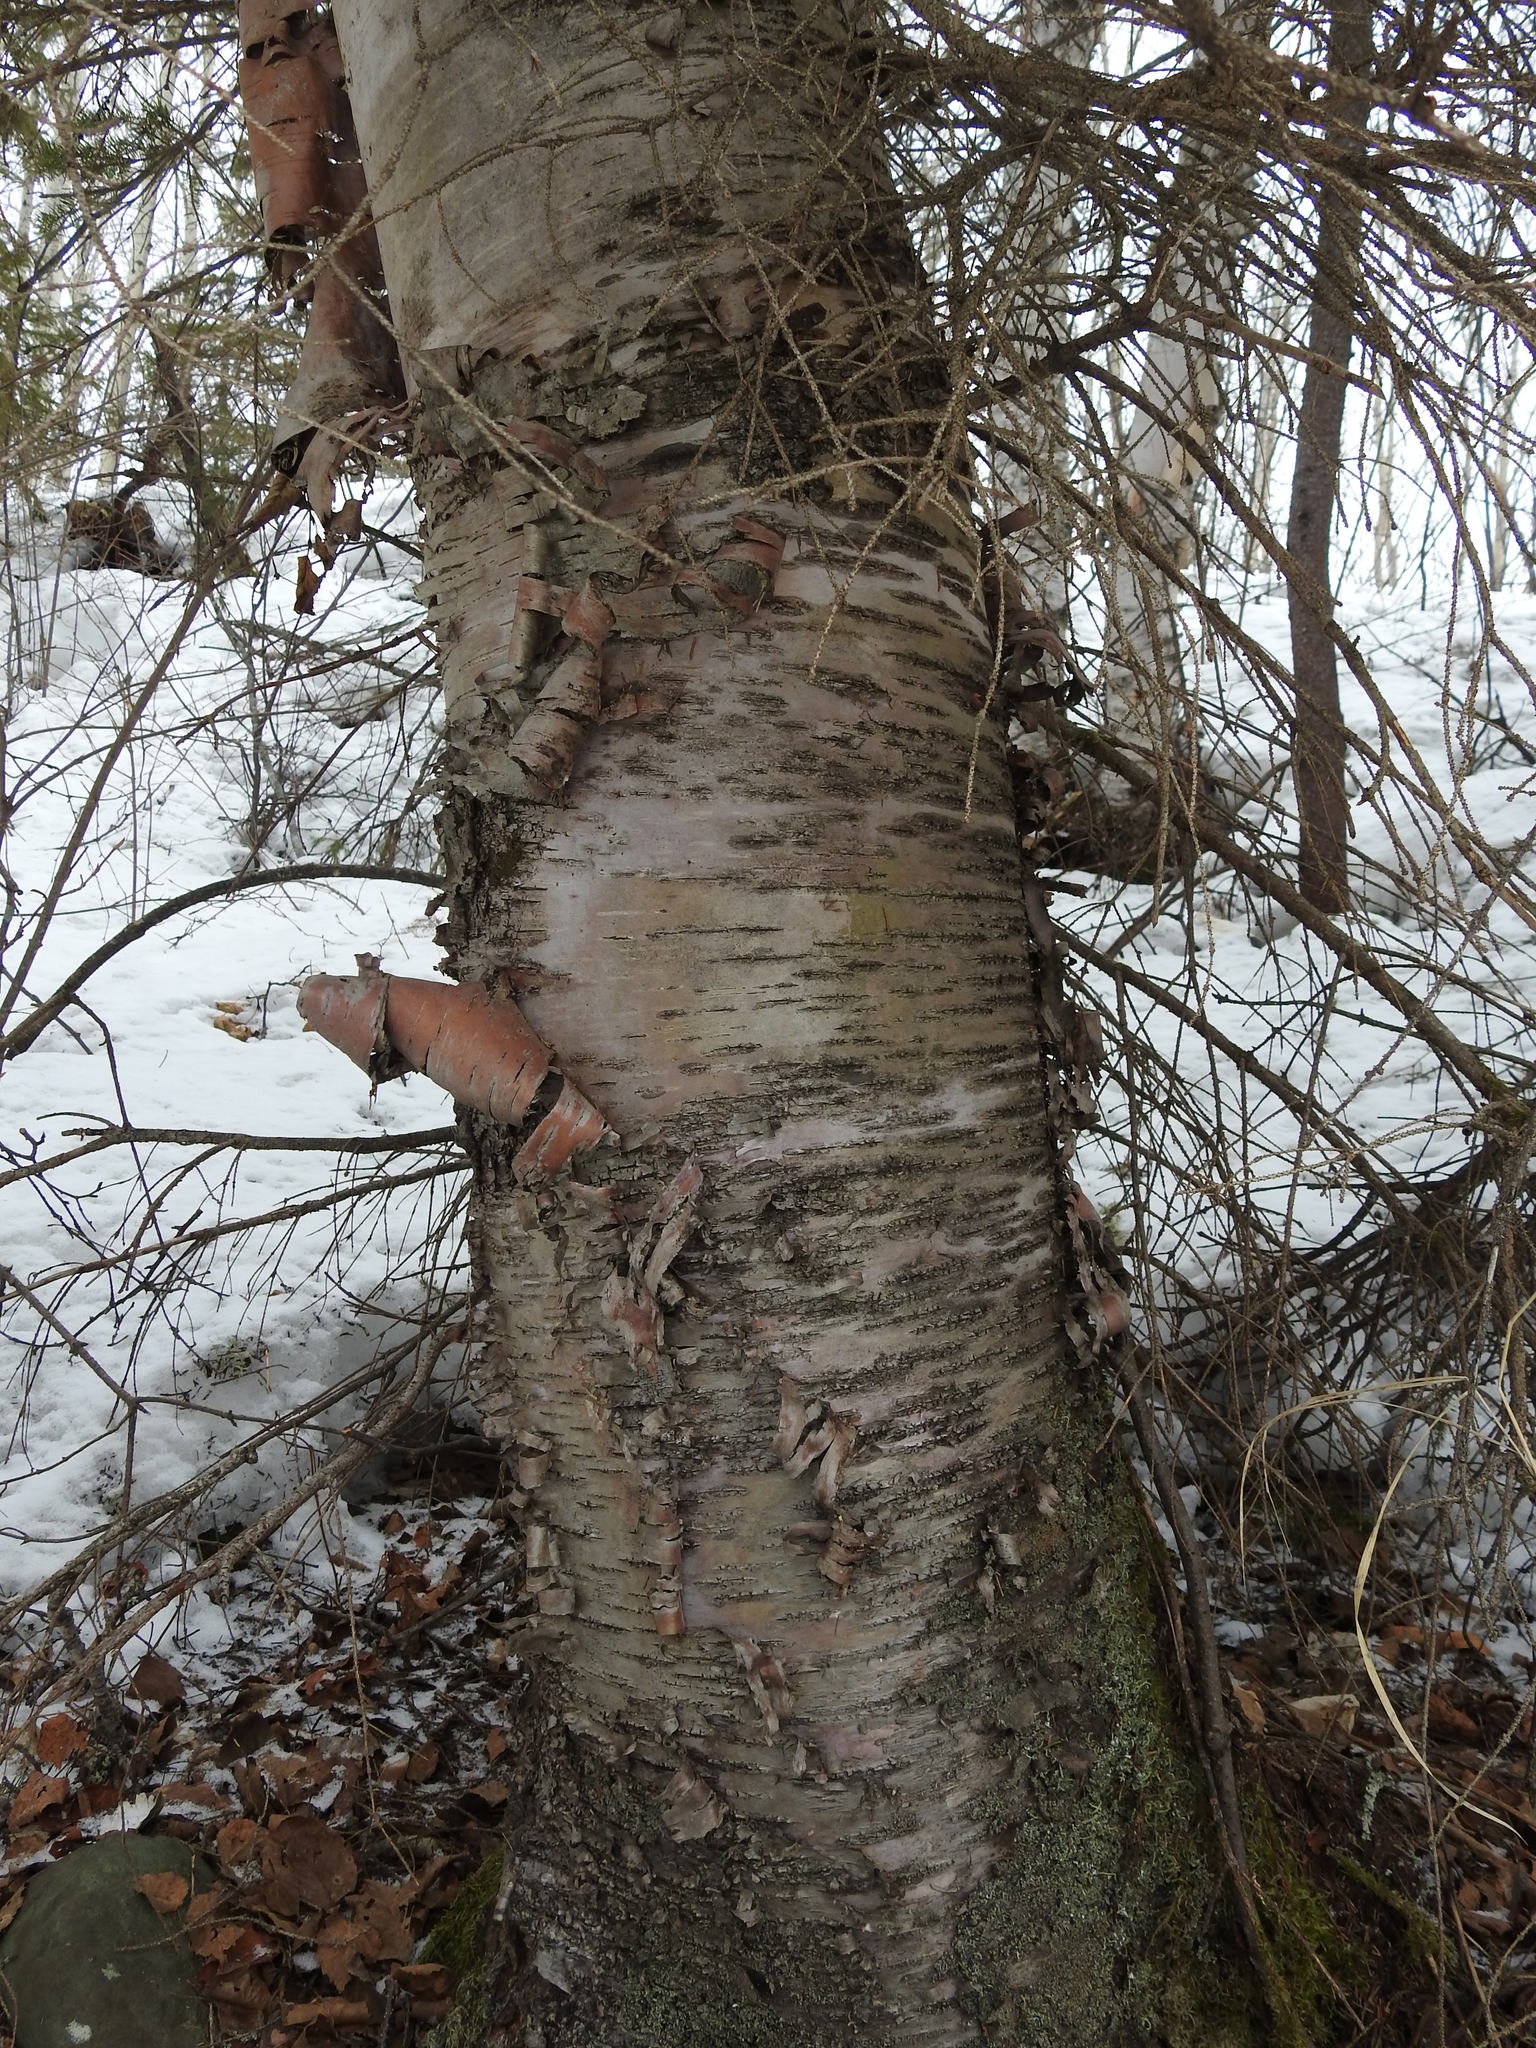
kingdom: Plantae
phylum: Tracheophyta
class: Magnoliopsida
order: Fagales
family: Betulaceae
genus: Betula
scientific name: Betula papyrifera
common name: Paper birch
